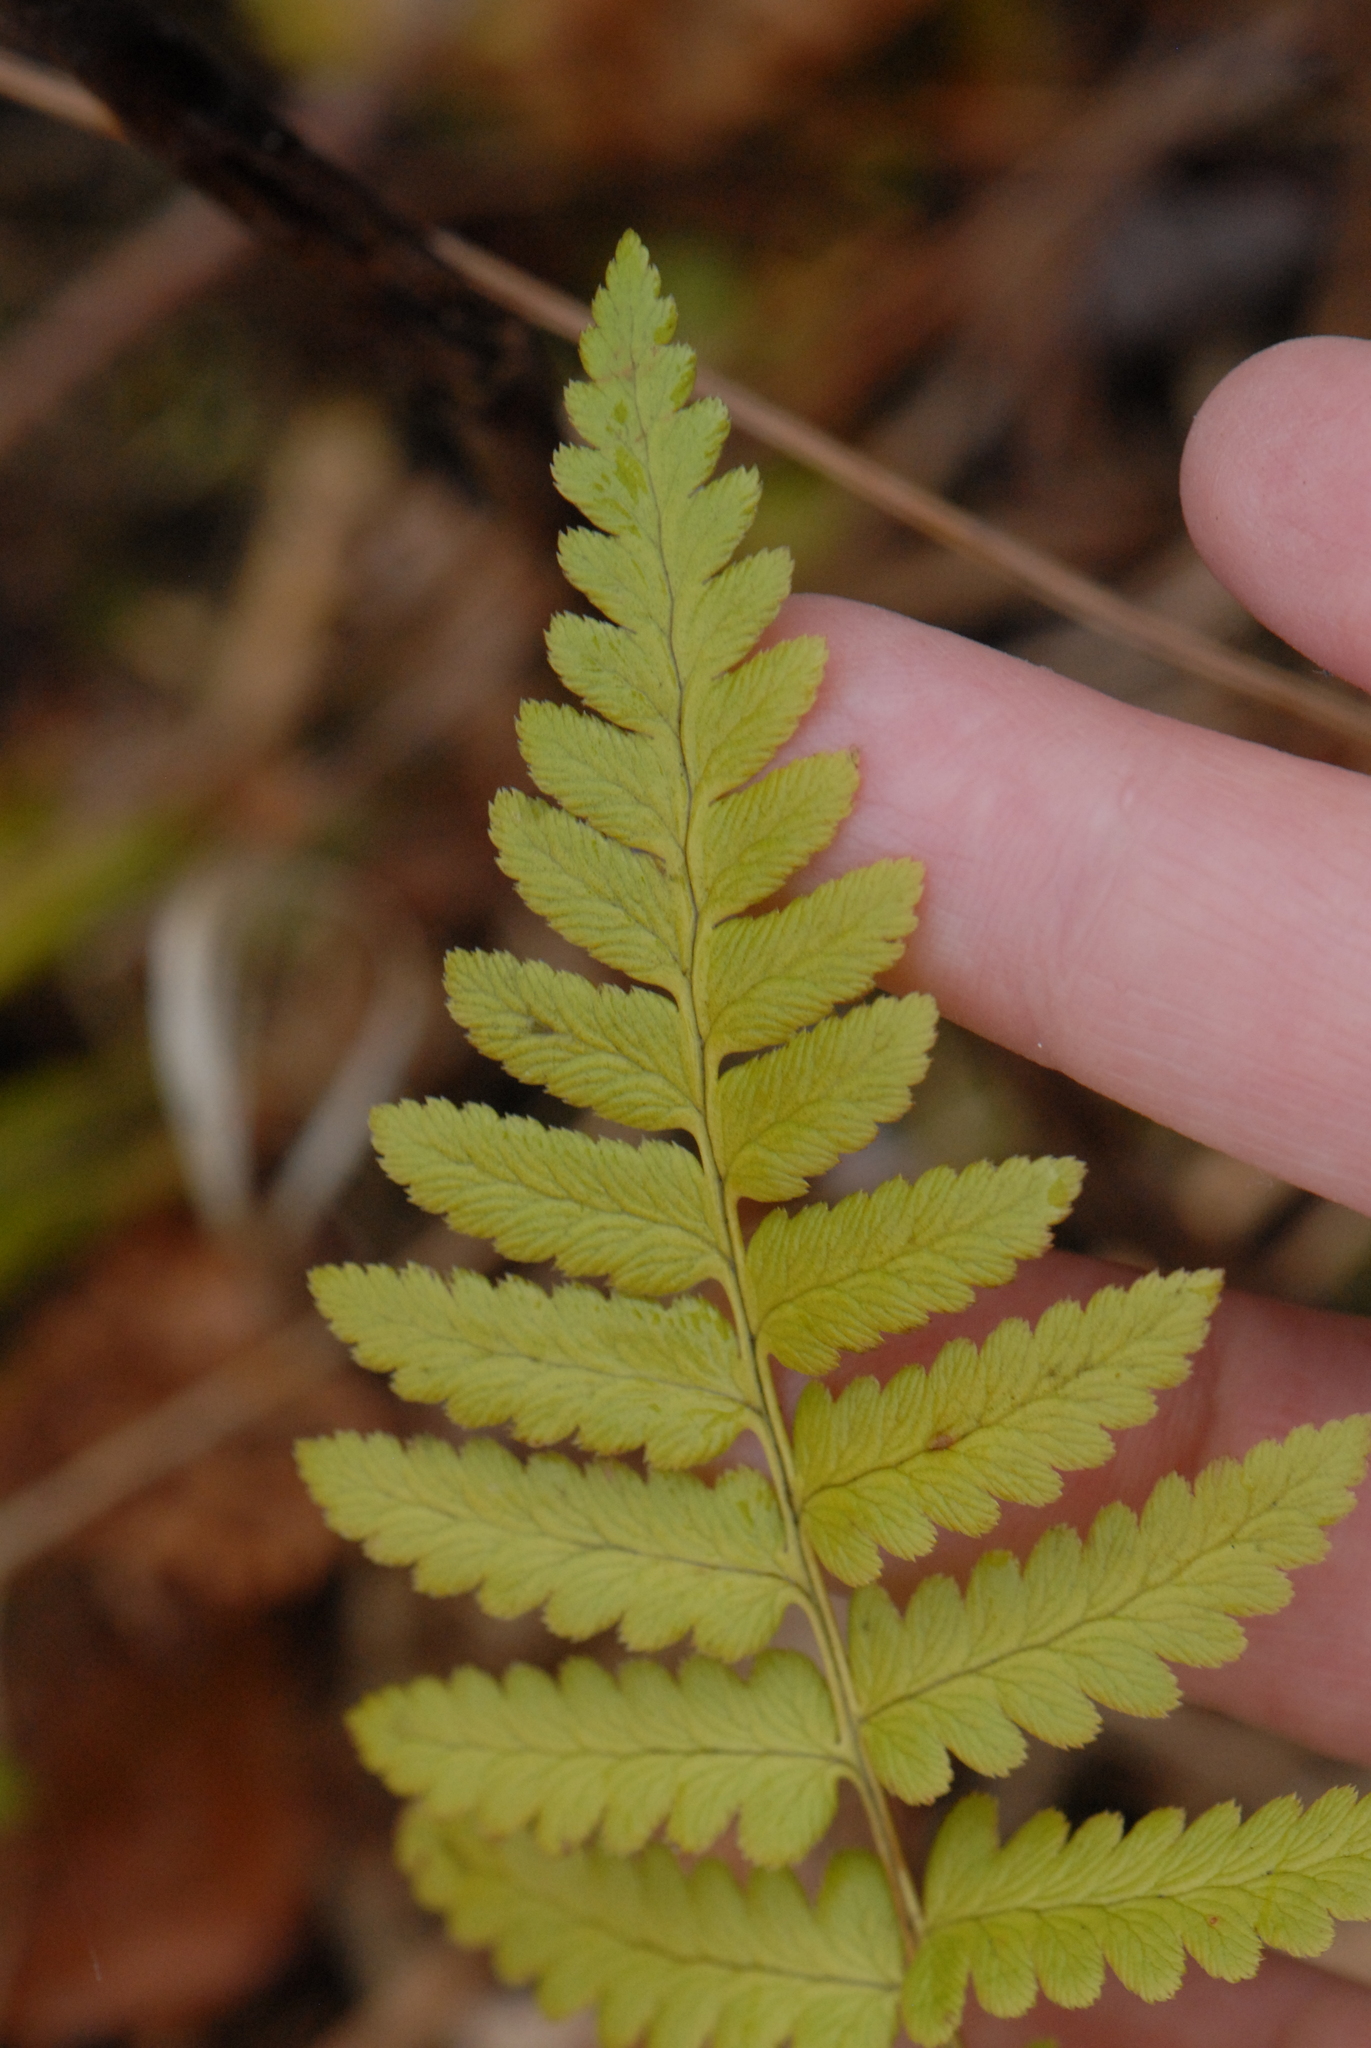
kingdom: Plantae
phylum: Tracheophyta
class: Polypodiopsida
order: Polypodiales
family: Dryopteridaceae
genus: Dryopteris
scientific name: Dryopteris cristata
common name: Crested wood fern
